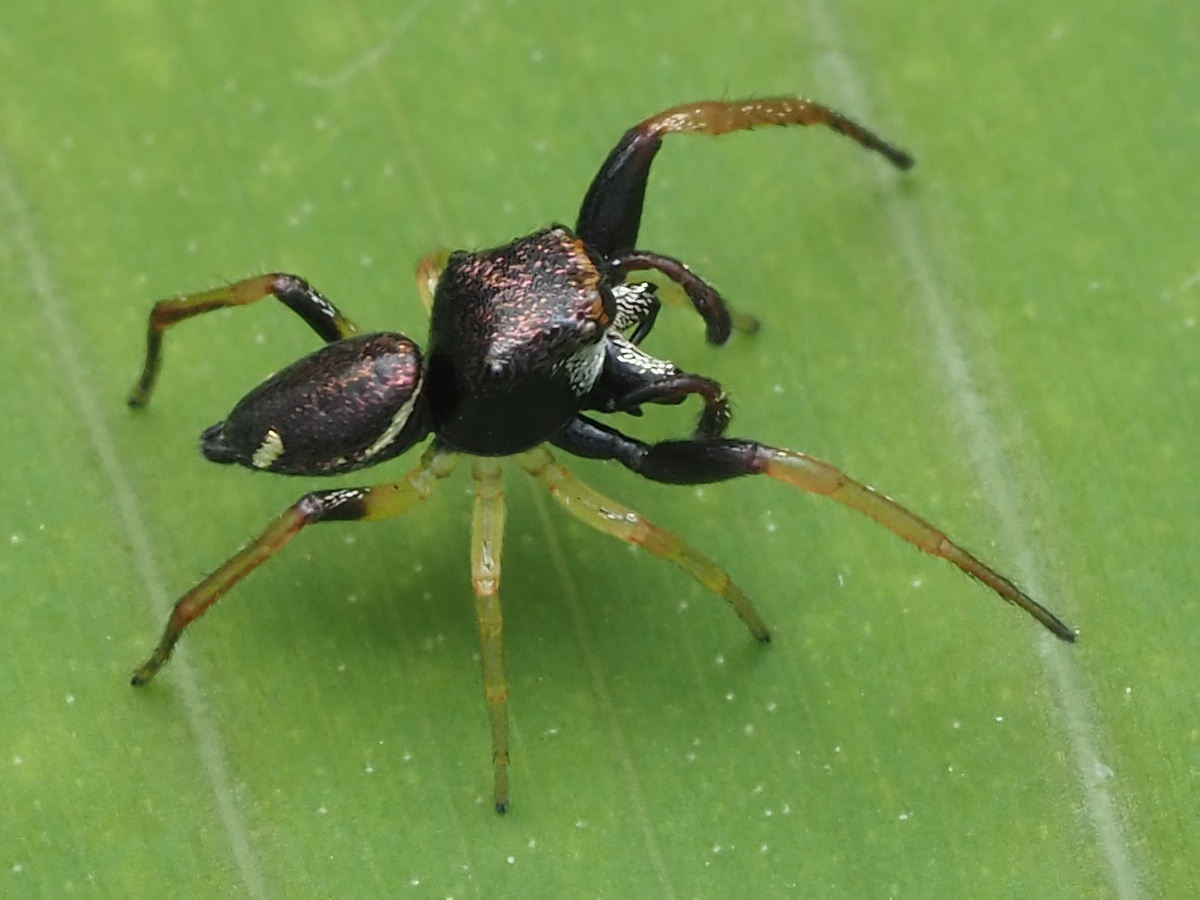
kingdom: Animalia
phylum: Arthropoda
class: Arachnida
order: Araneae
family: Salticidae
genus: Zygoballus
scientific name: Zygoballus maculatipes
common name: Jumping spiders
